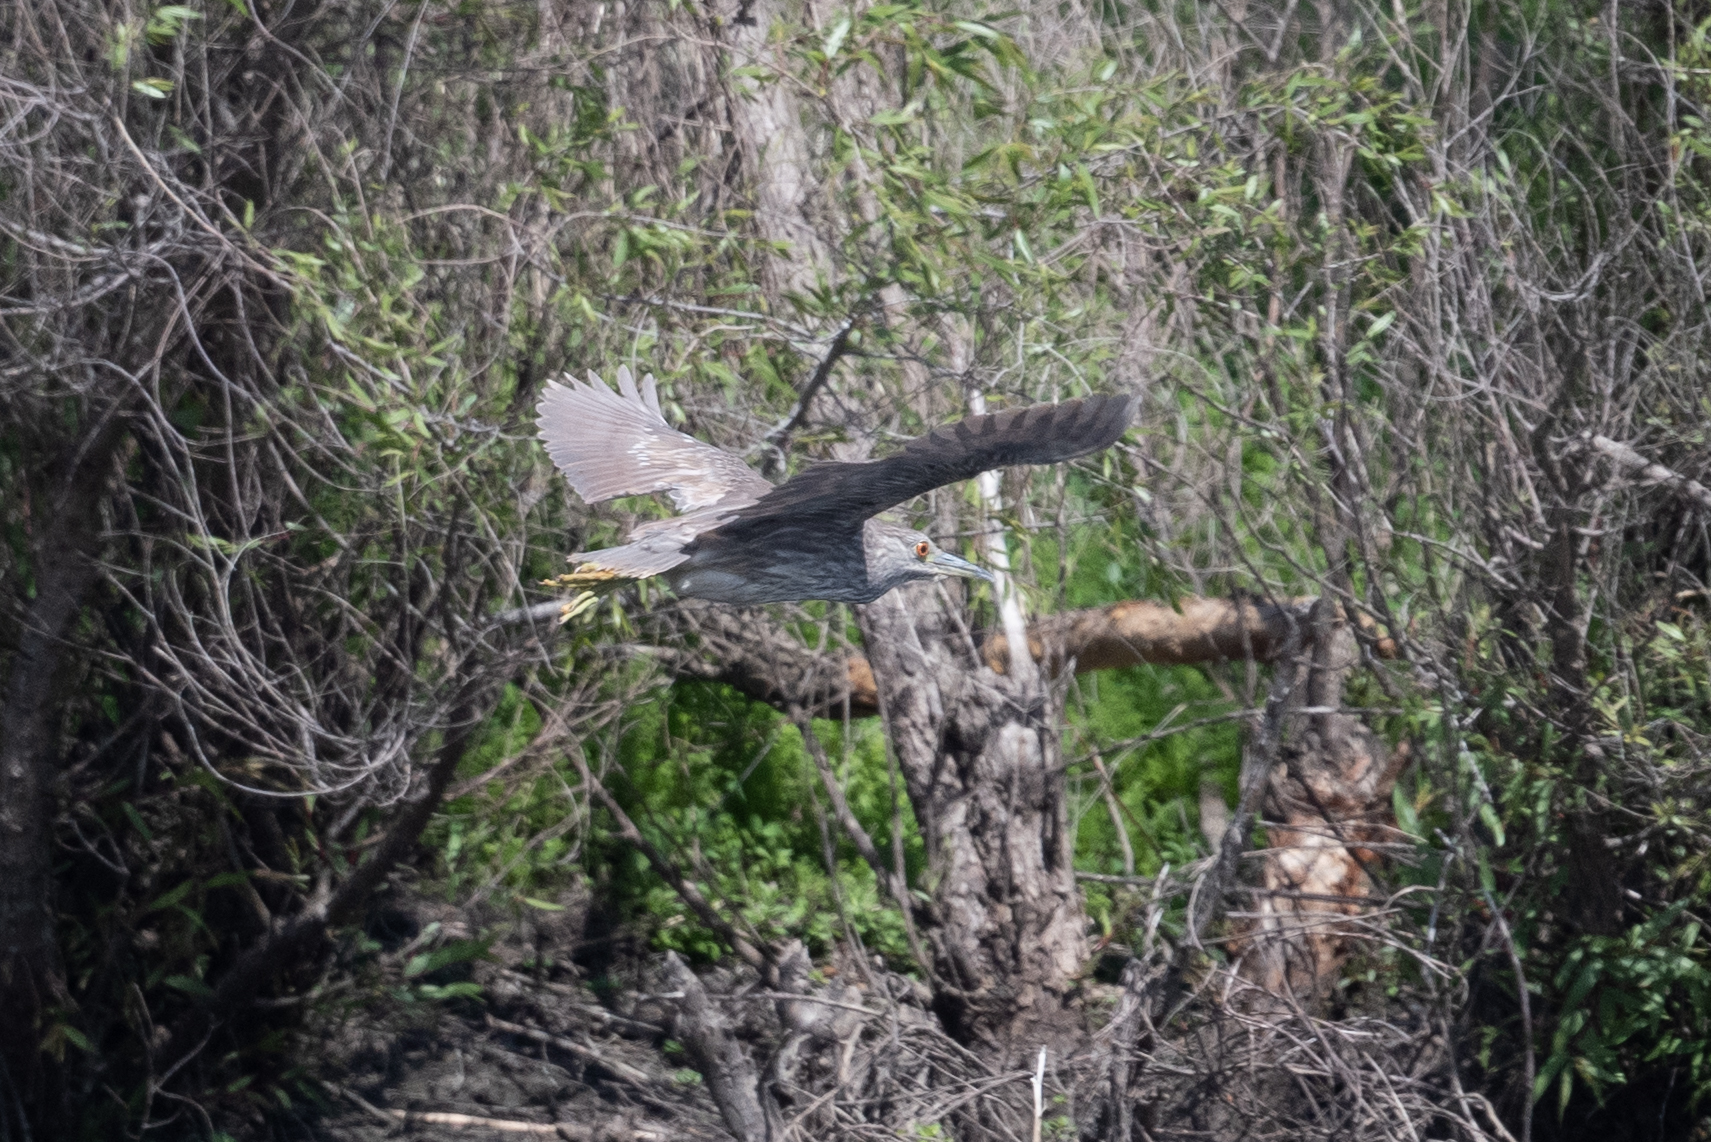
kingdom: Animalia
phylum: Chordata
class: Aves
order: Pelecaniformes
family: Ardeidae
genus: Nycticorax
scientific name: Nycticorax nycticorax
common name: Black-crowned night heron
